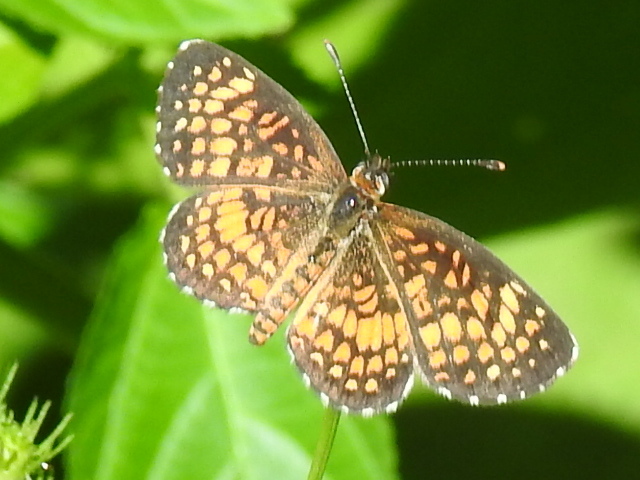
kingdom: Animalia
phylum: Arthropoda
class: Insecta
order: Lepidoptera
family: Nymphalidae
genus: Texola
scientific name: Texola
